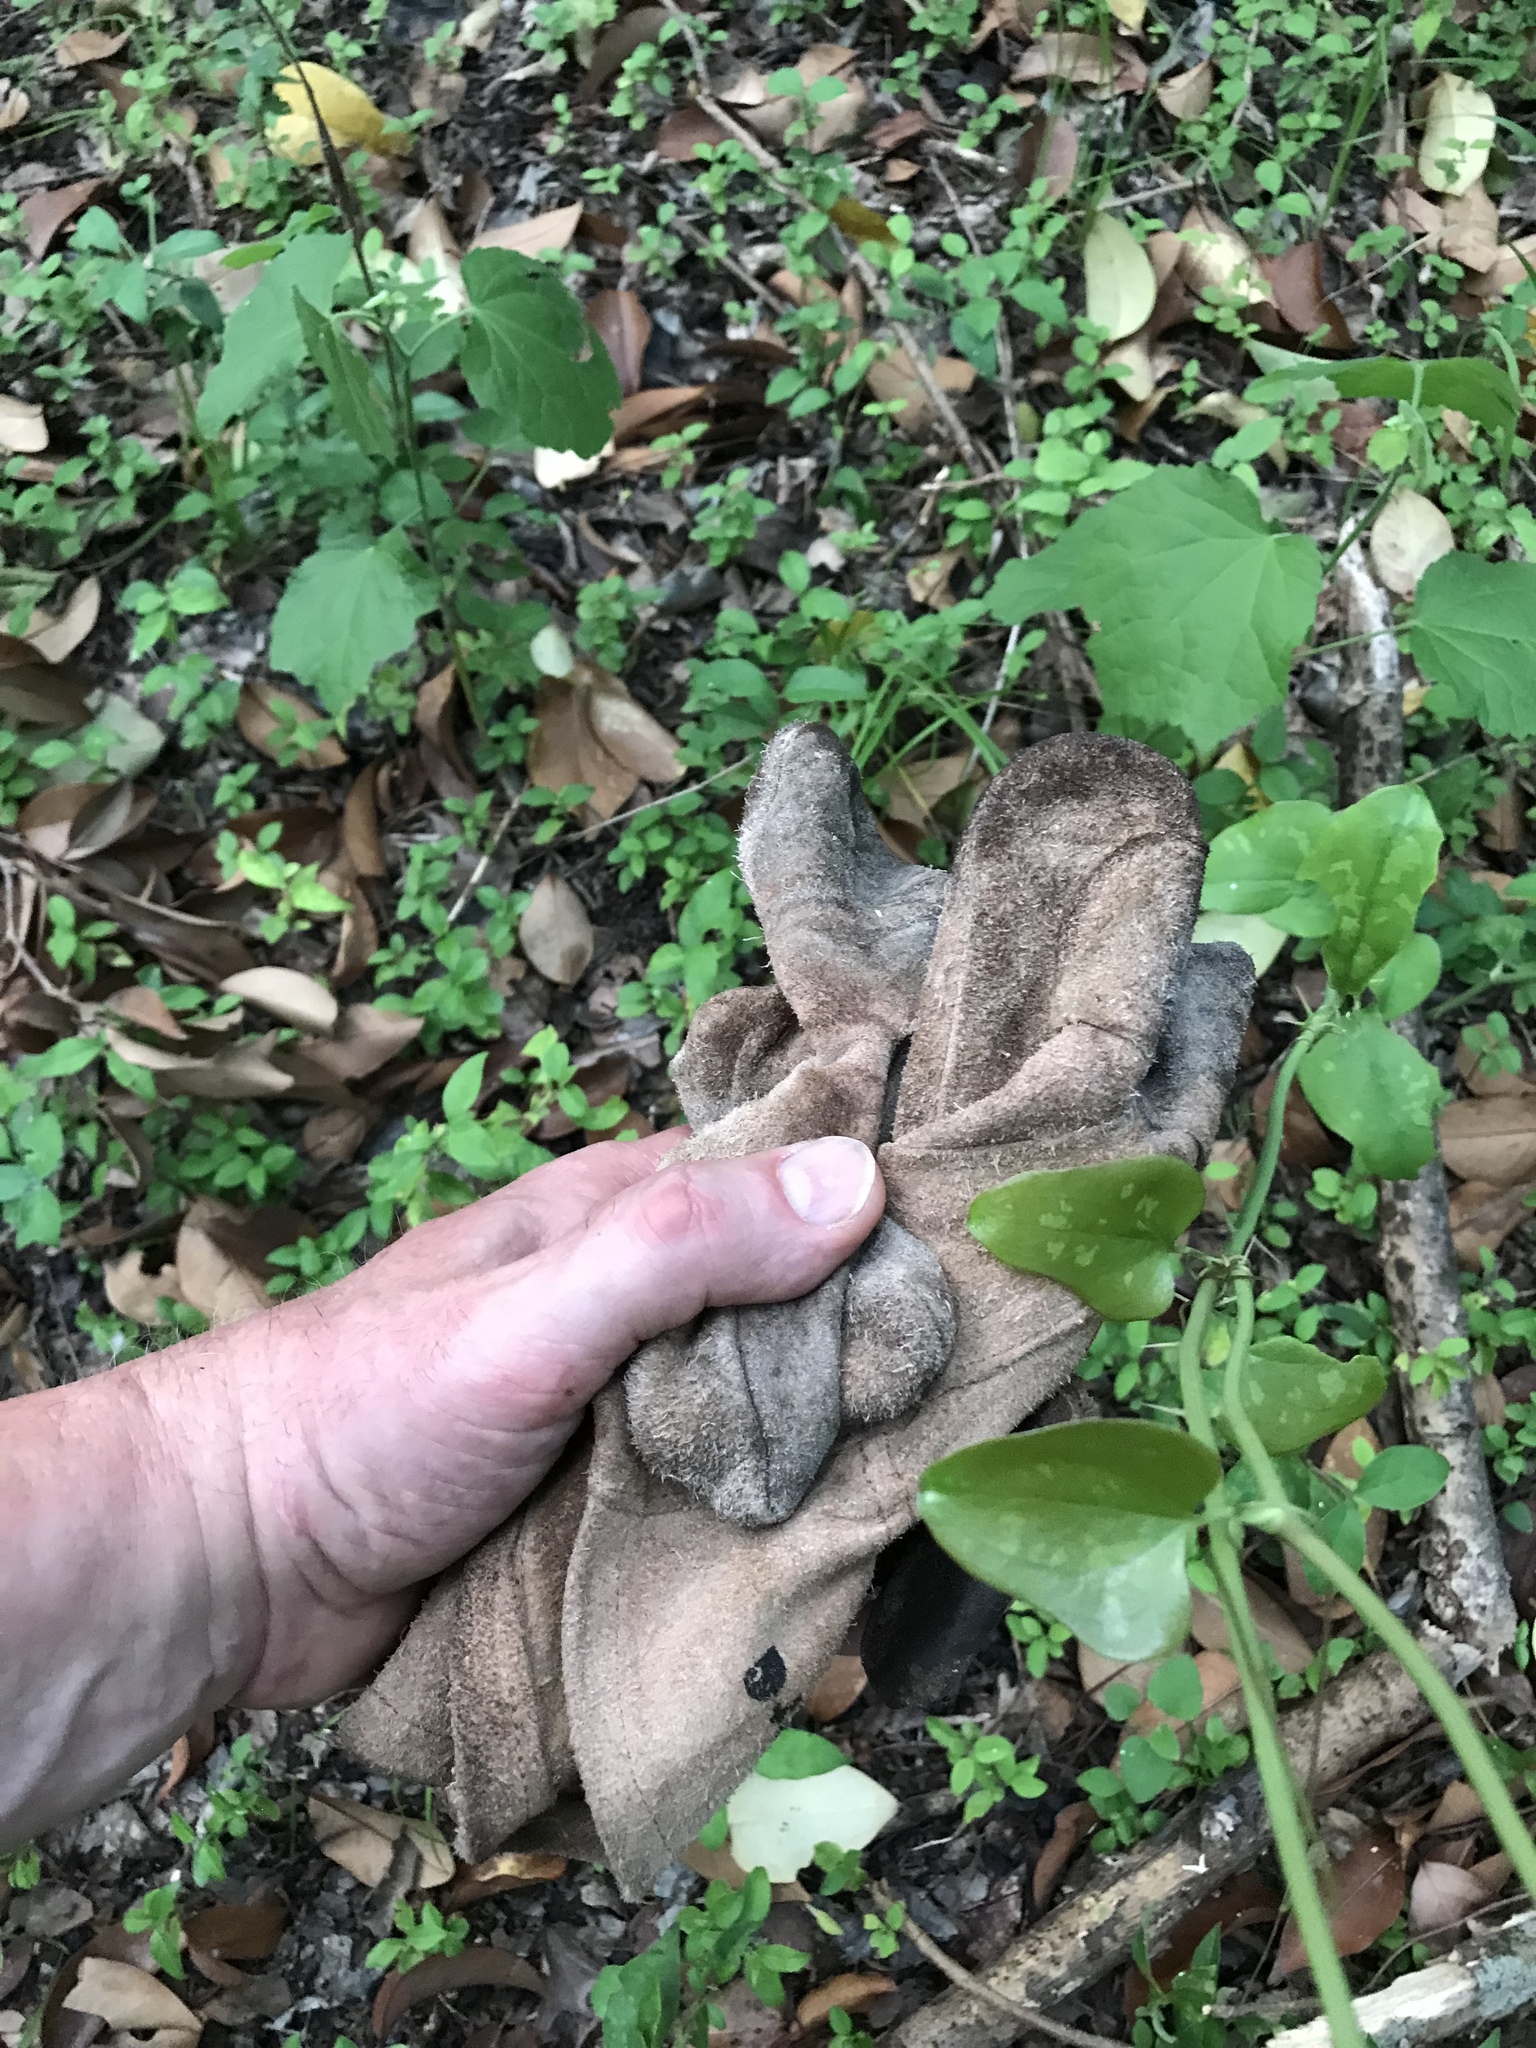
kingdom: Plantae
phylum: Tracheophyta
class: Liliopsida
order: Liliales
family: Smilacaceae
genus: Smilax
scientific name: Smilax bona-nox
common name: Catbrier
